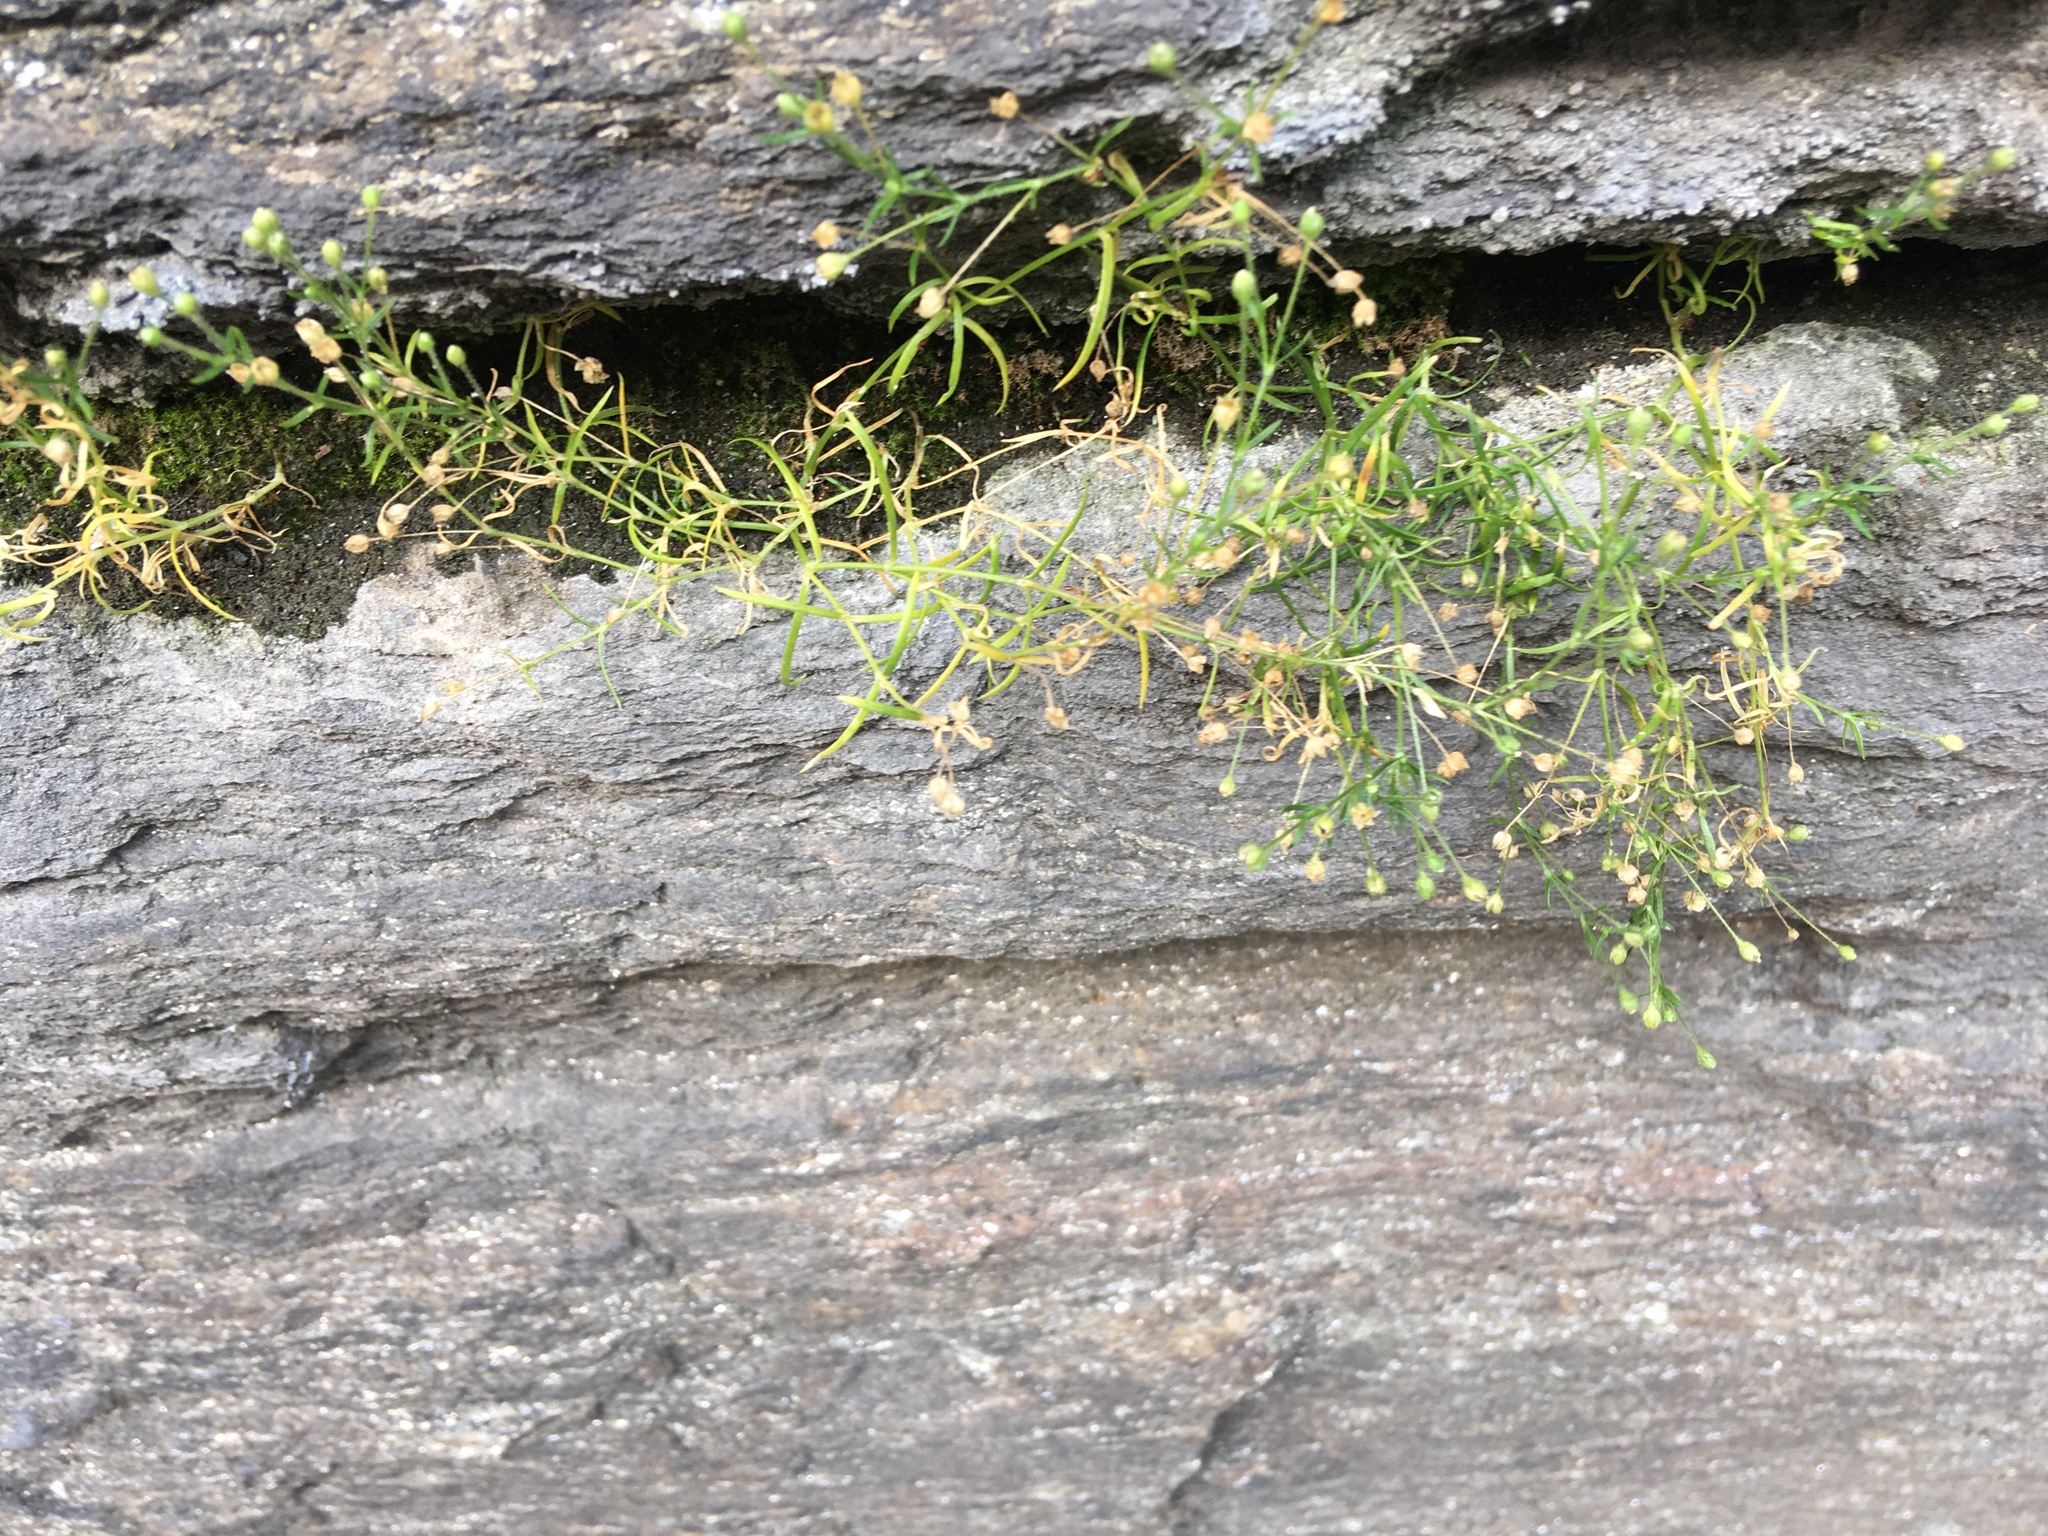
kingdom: Plantae
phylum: Tracheophyta
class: Magnoliopsida
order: Caryophyllales
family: Caryophyllaceae
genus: Sagina
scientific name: Sagina japonica
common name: Japanese pearlwort
